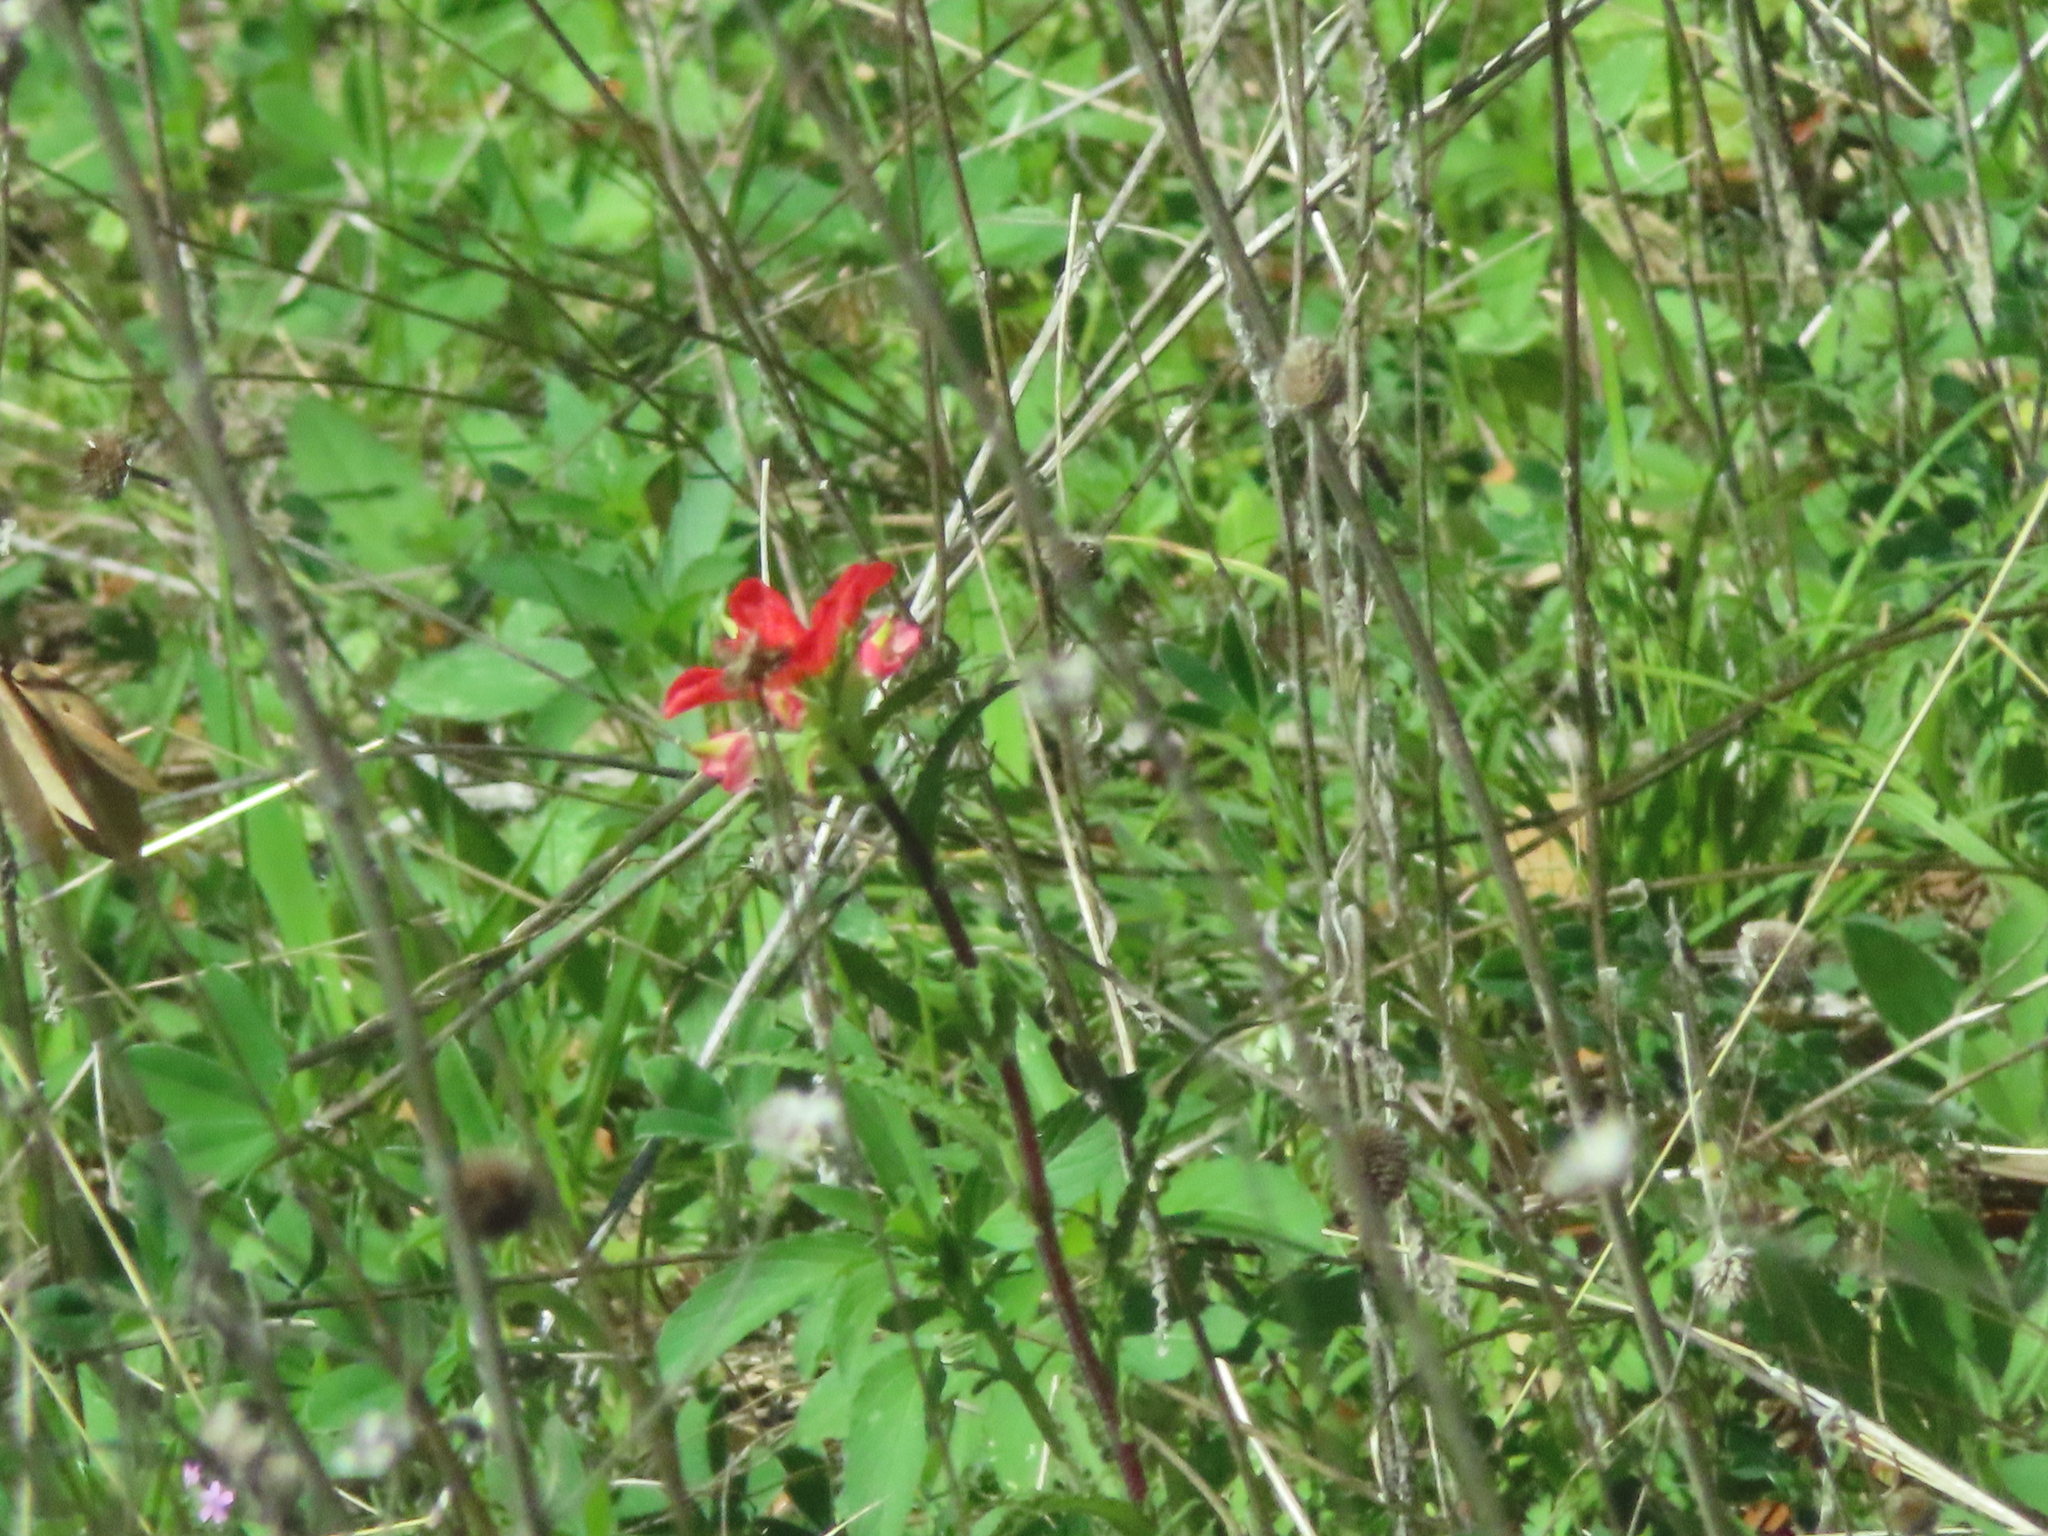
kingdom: Plantae
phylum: Tracheophyta
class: Magnoliopsida
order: Lamiales
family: Orobanchaceae
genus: Castilleja
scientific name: Castilleja indivisa
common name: Texas paintbrush
